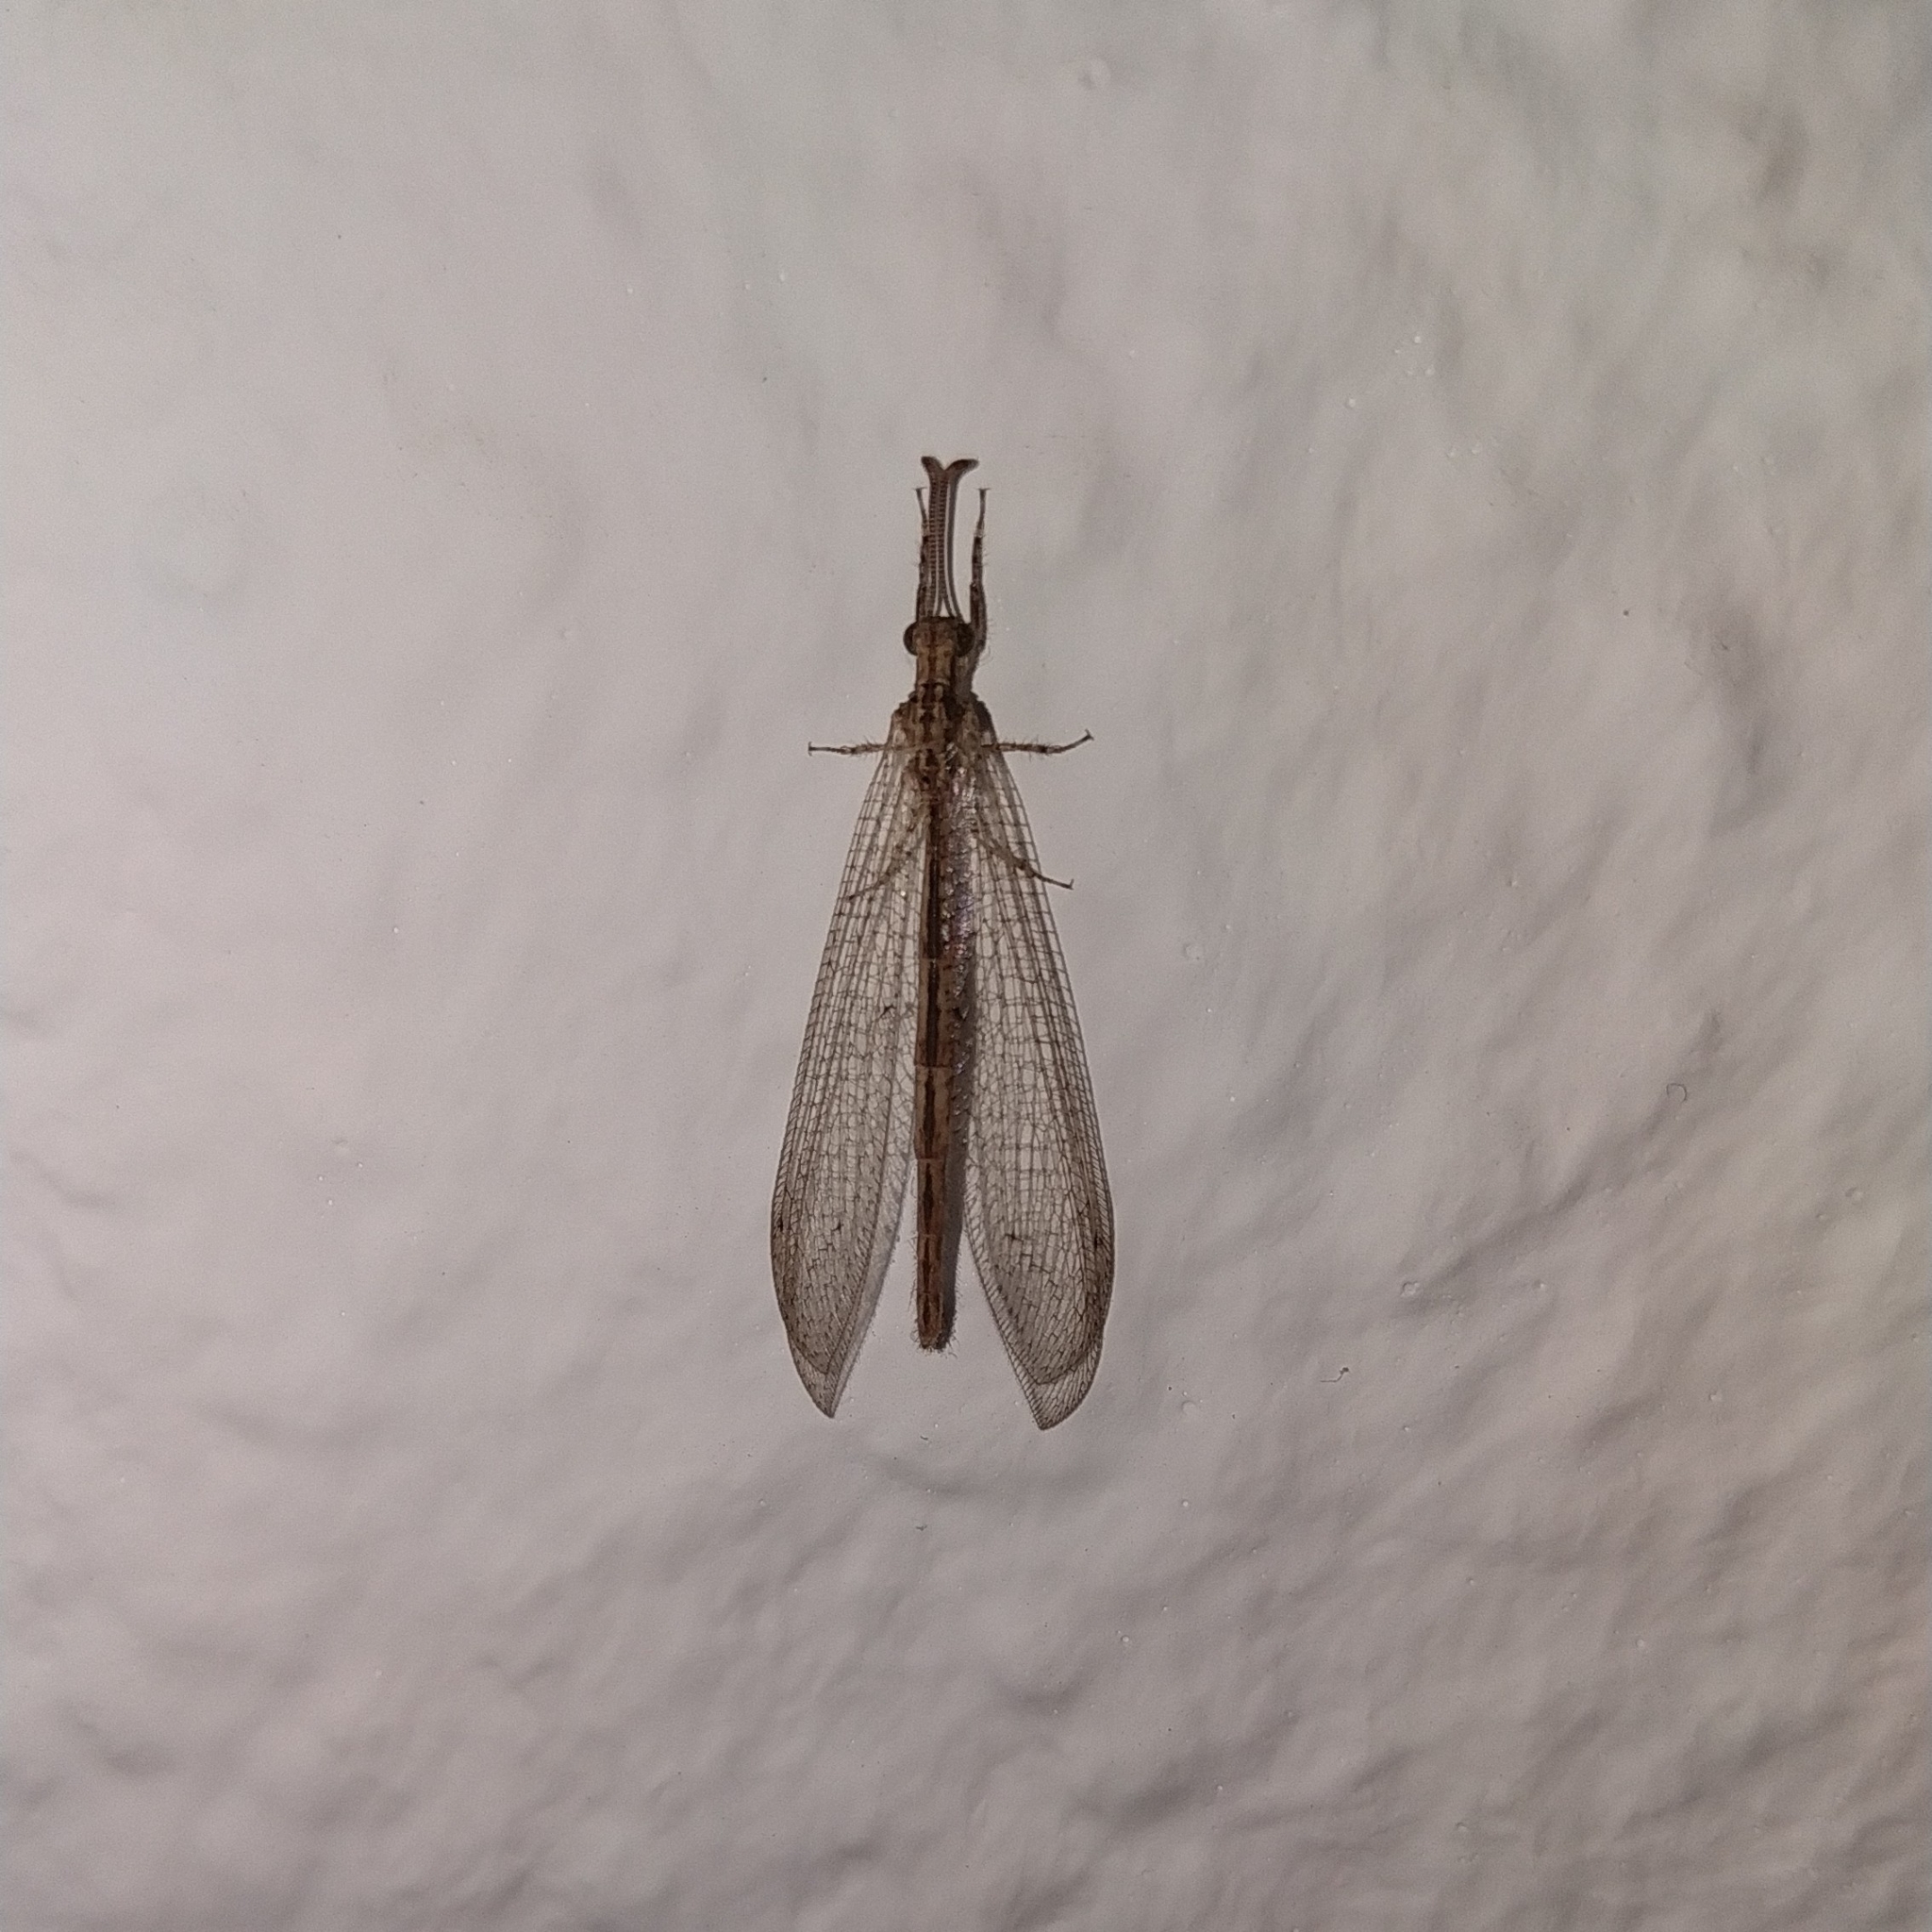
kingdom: Animalia
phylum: Arthropoda
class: Insecta
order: Neuroptera
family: Myrmeleontidae
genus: Neuroleon
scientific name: Neuroleon arenarius
